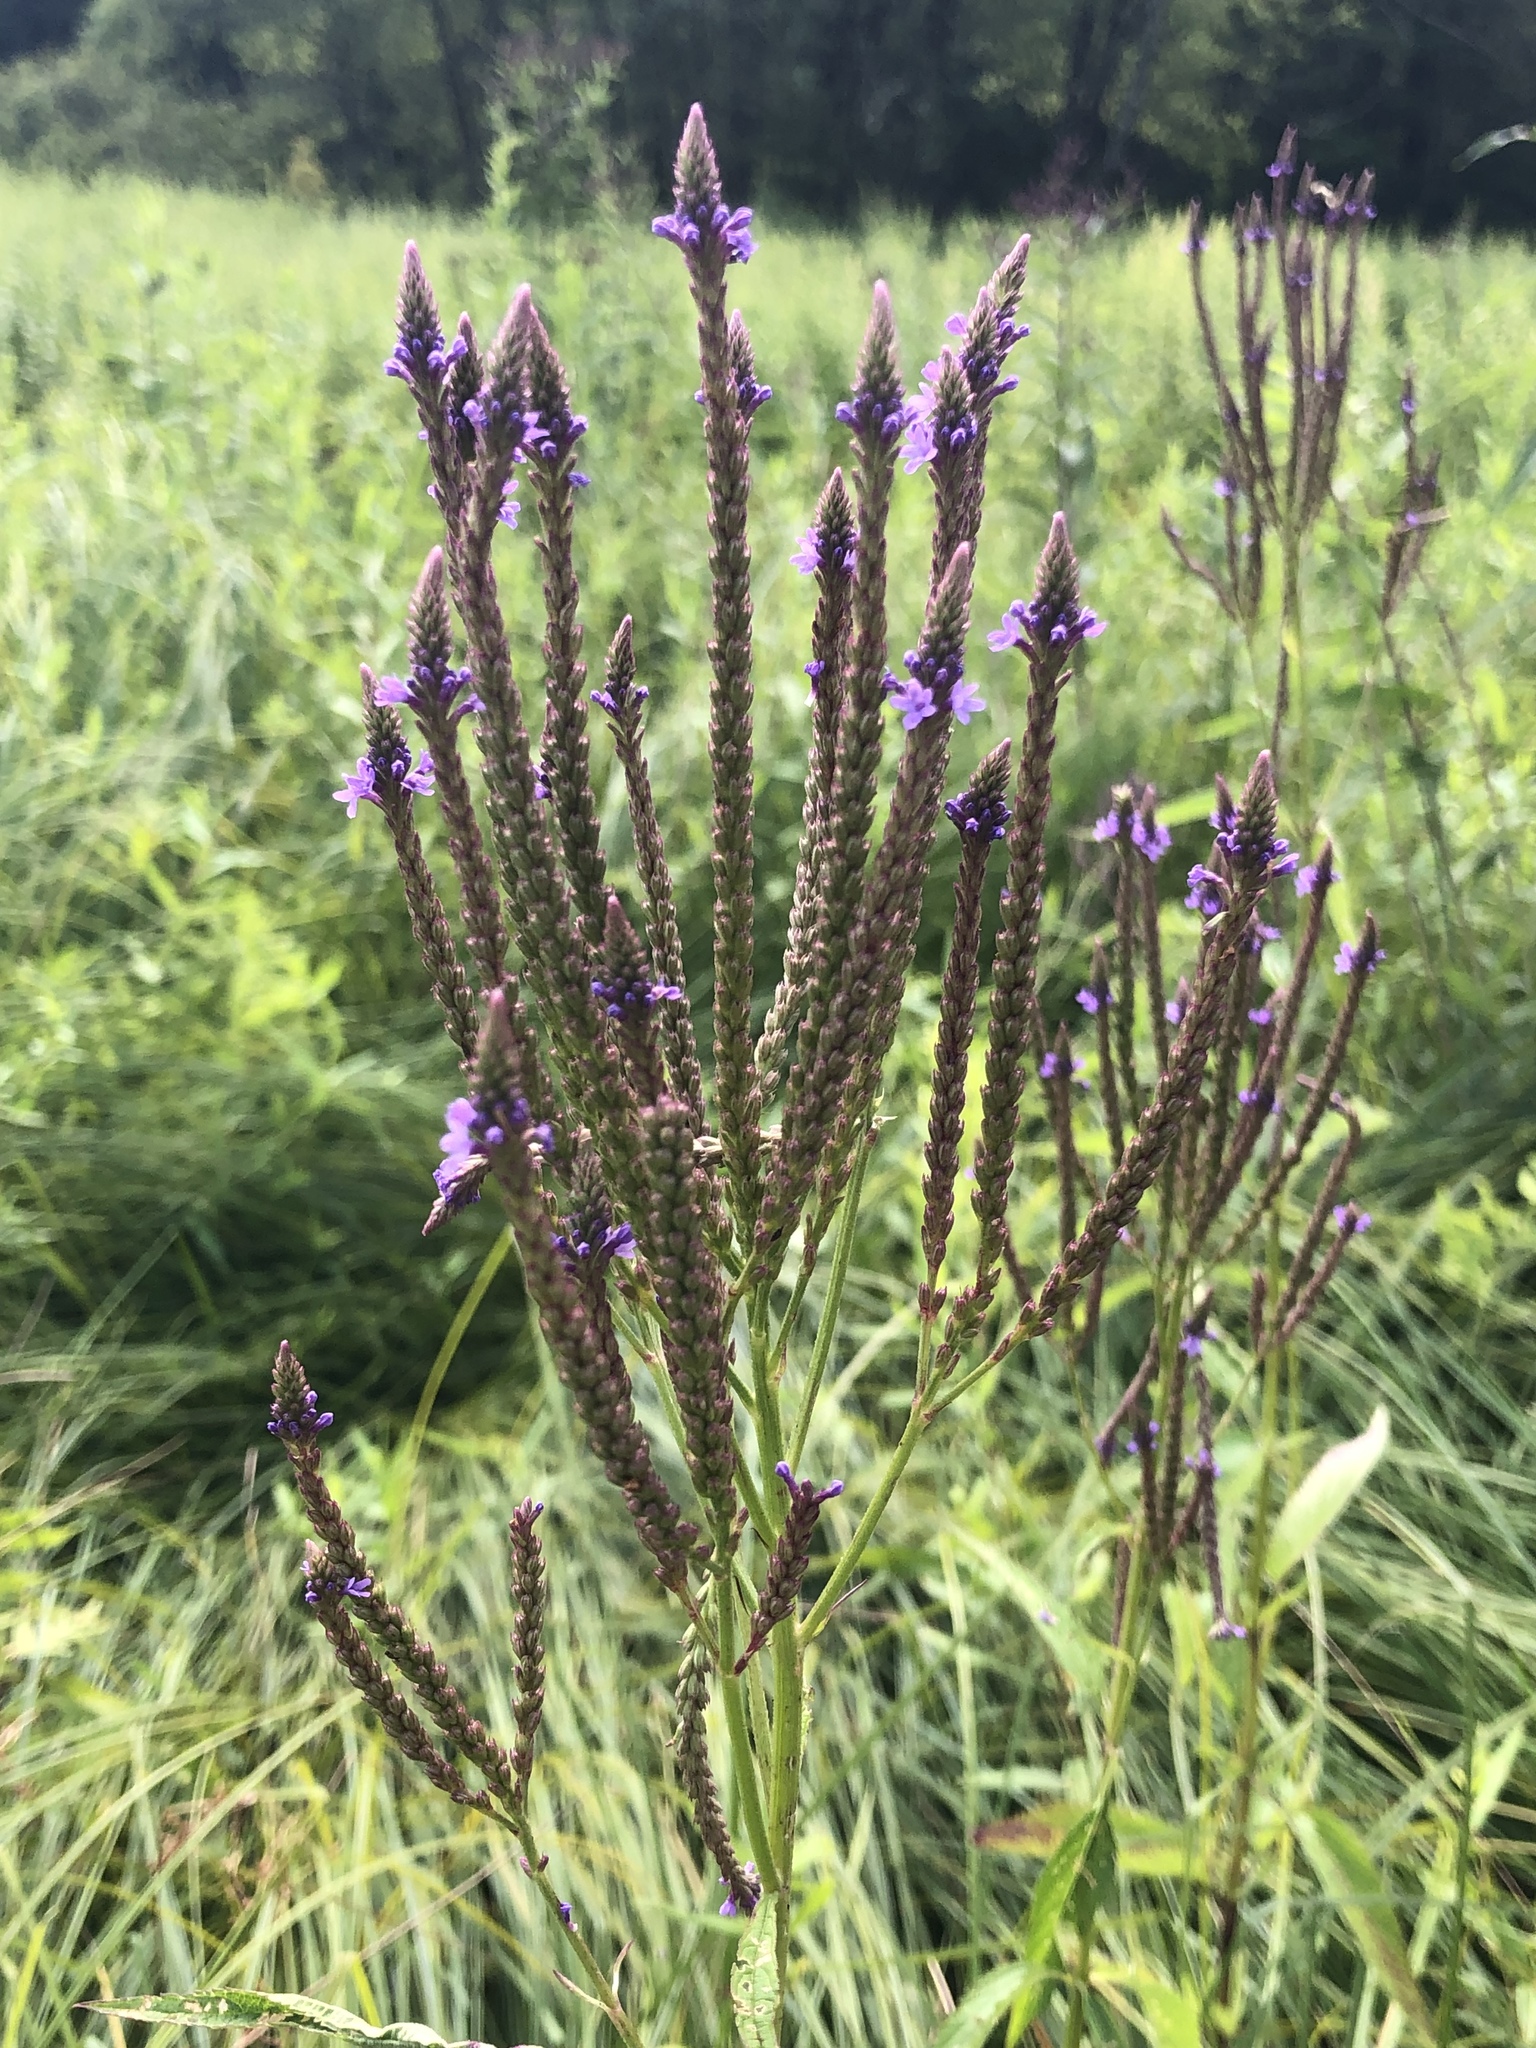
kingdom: Plantae
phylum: Tracheophyta
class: Magnoliopsida
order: Lamiales
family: Verbenaceae
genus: Verbena
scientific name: Verbena hastata
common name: American blue vervain
